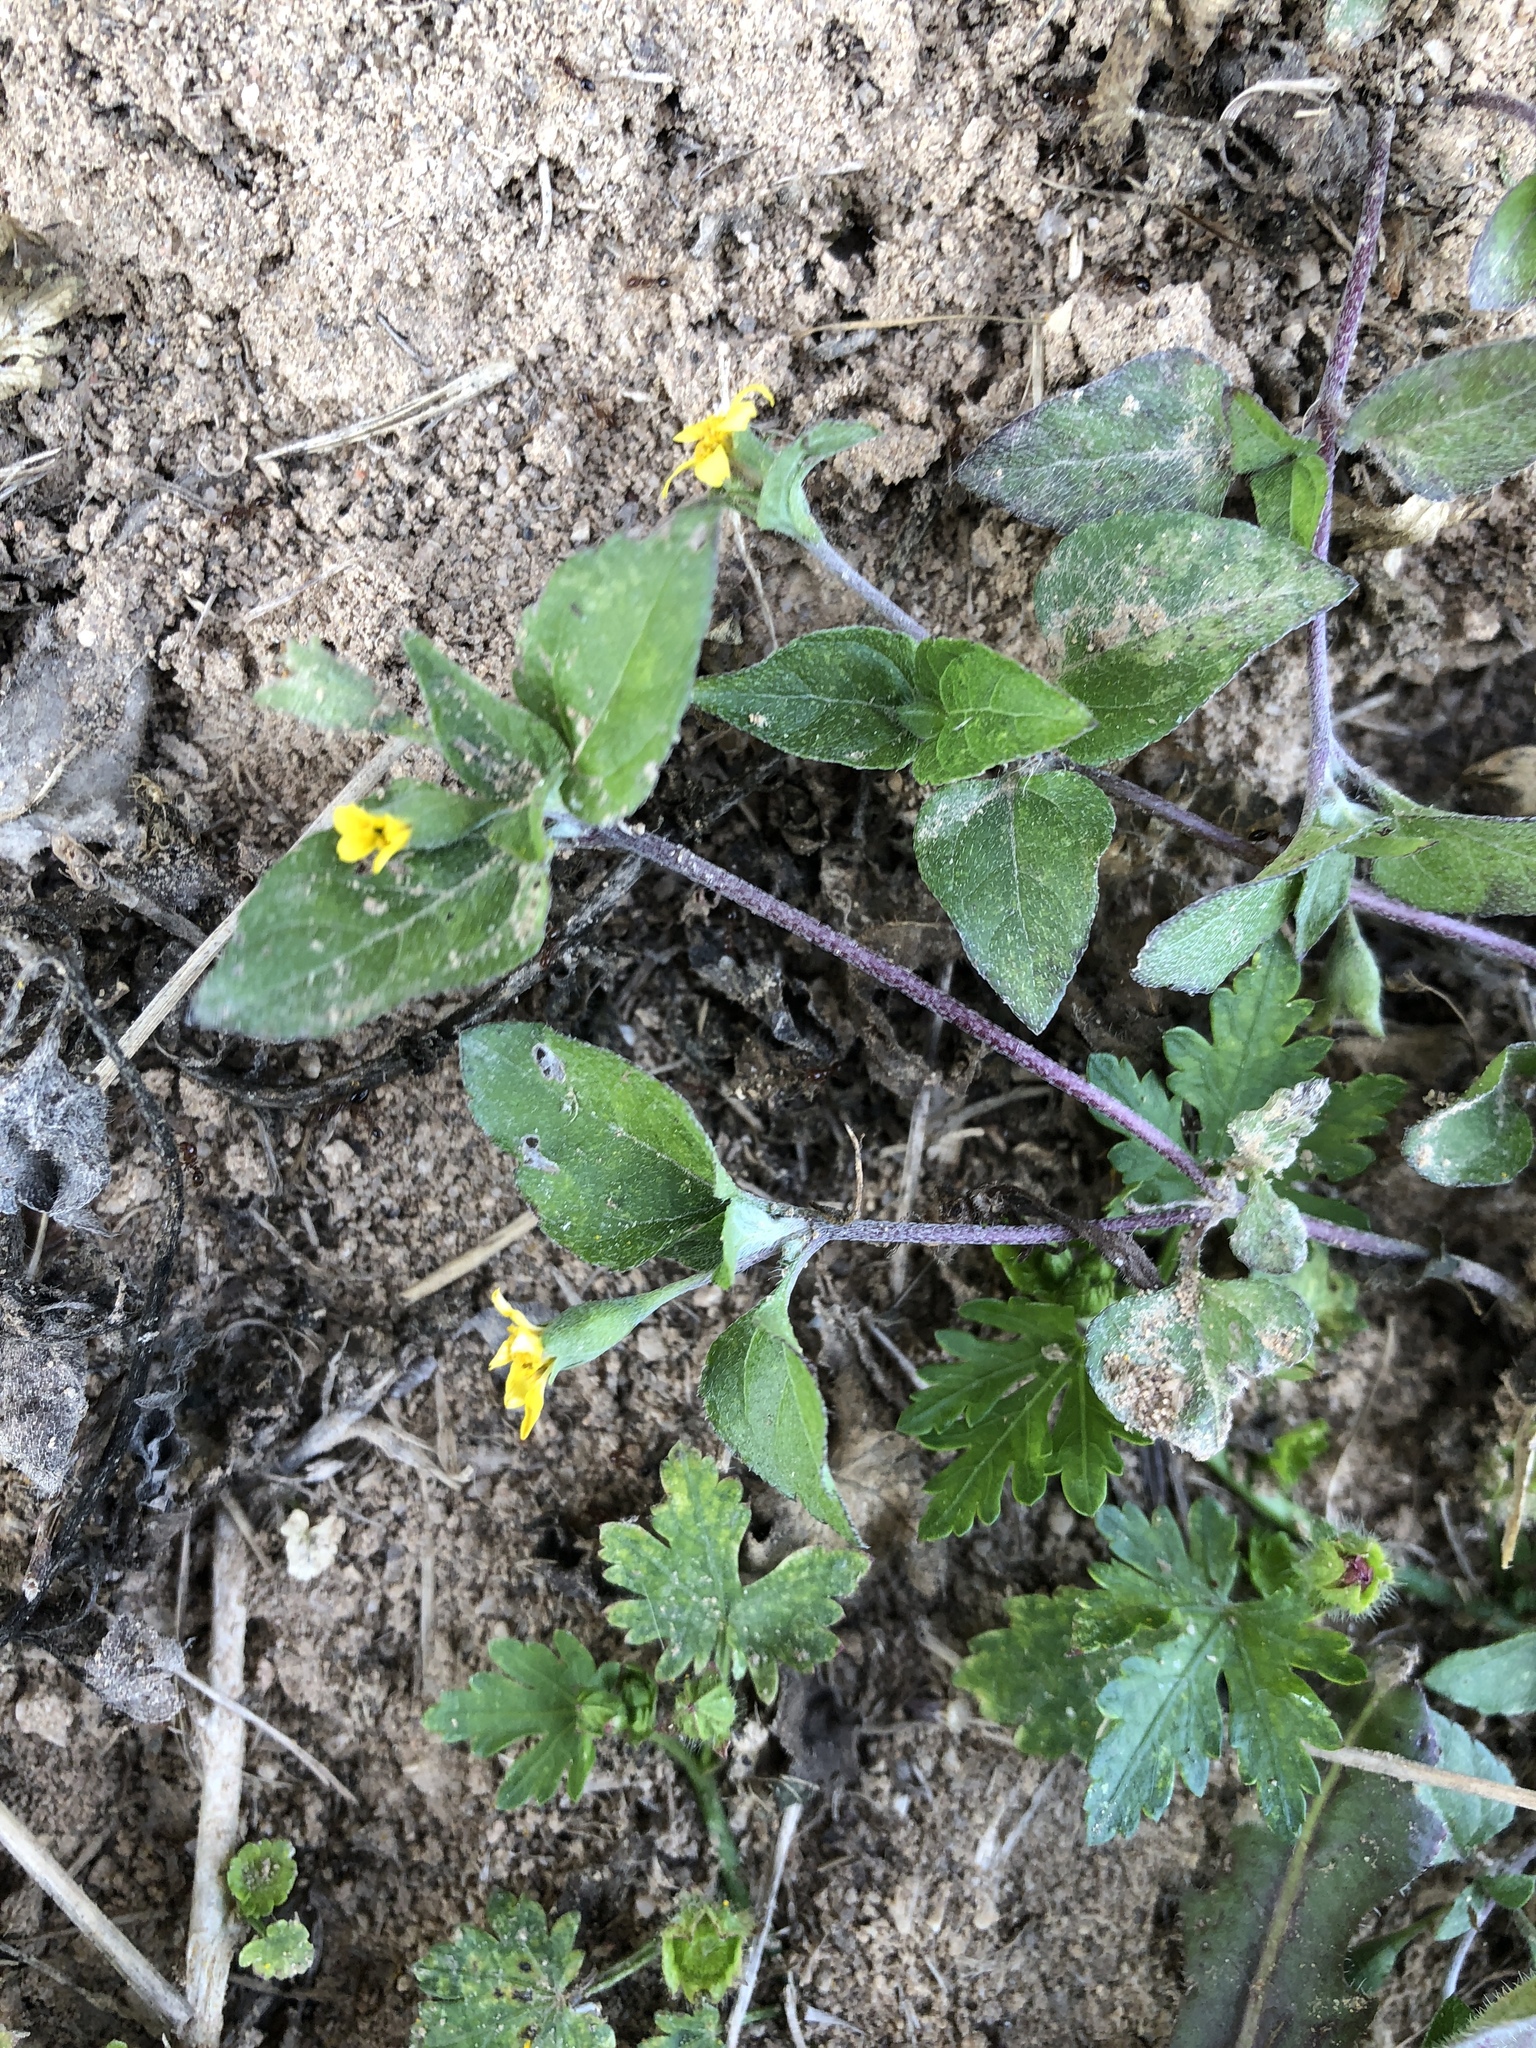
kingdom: Plantae
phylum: Tracheophyta
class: Magnoliopsida
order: Asterales
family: Asteraceae
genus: Calyptocarpus
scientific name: Calyptocarpus vialis
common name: Straggler daisy
